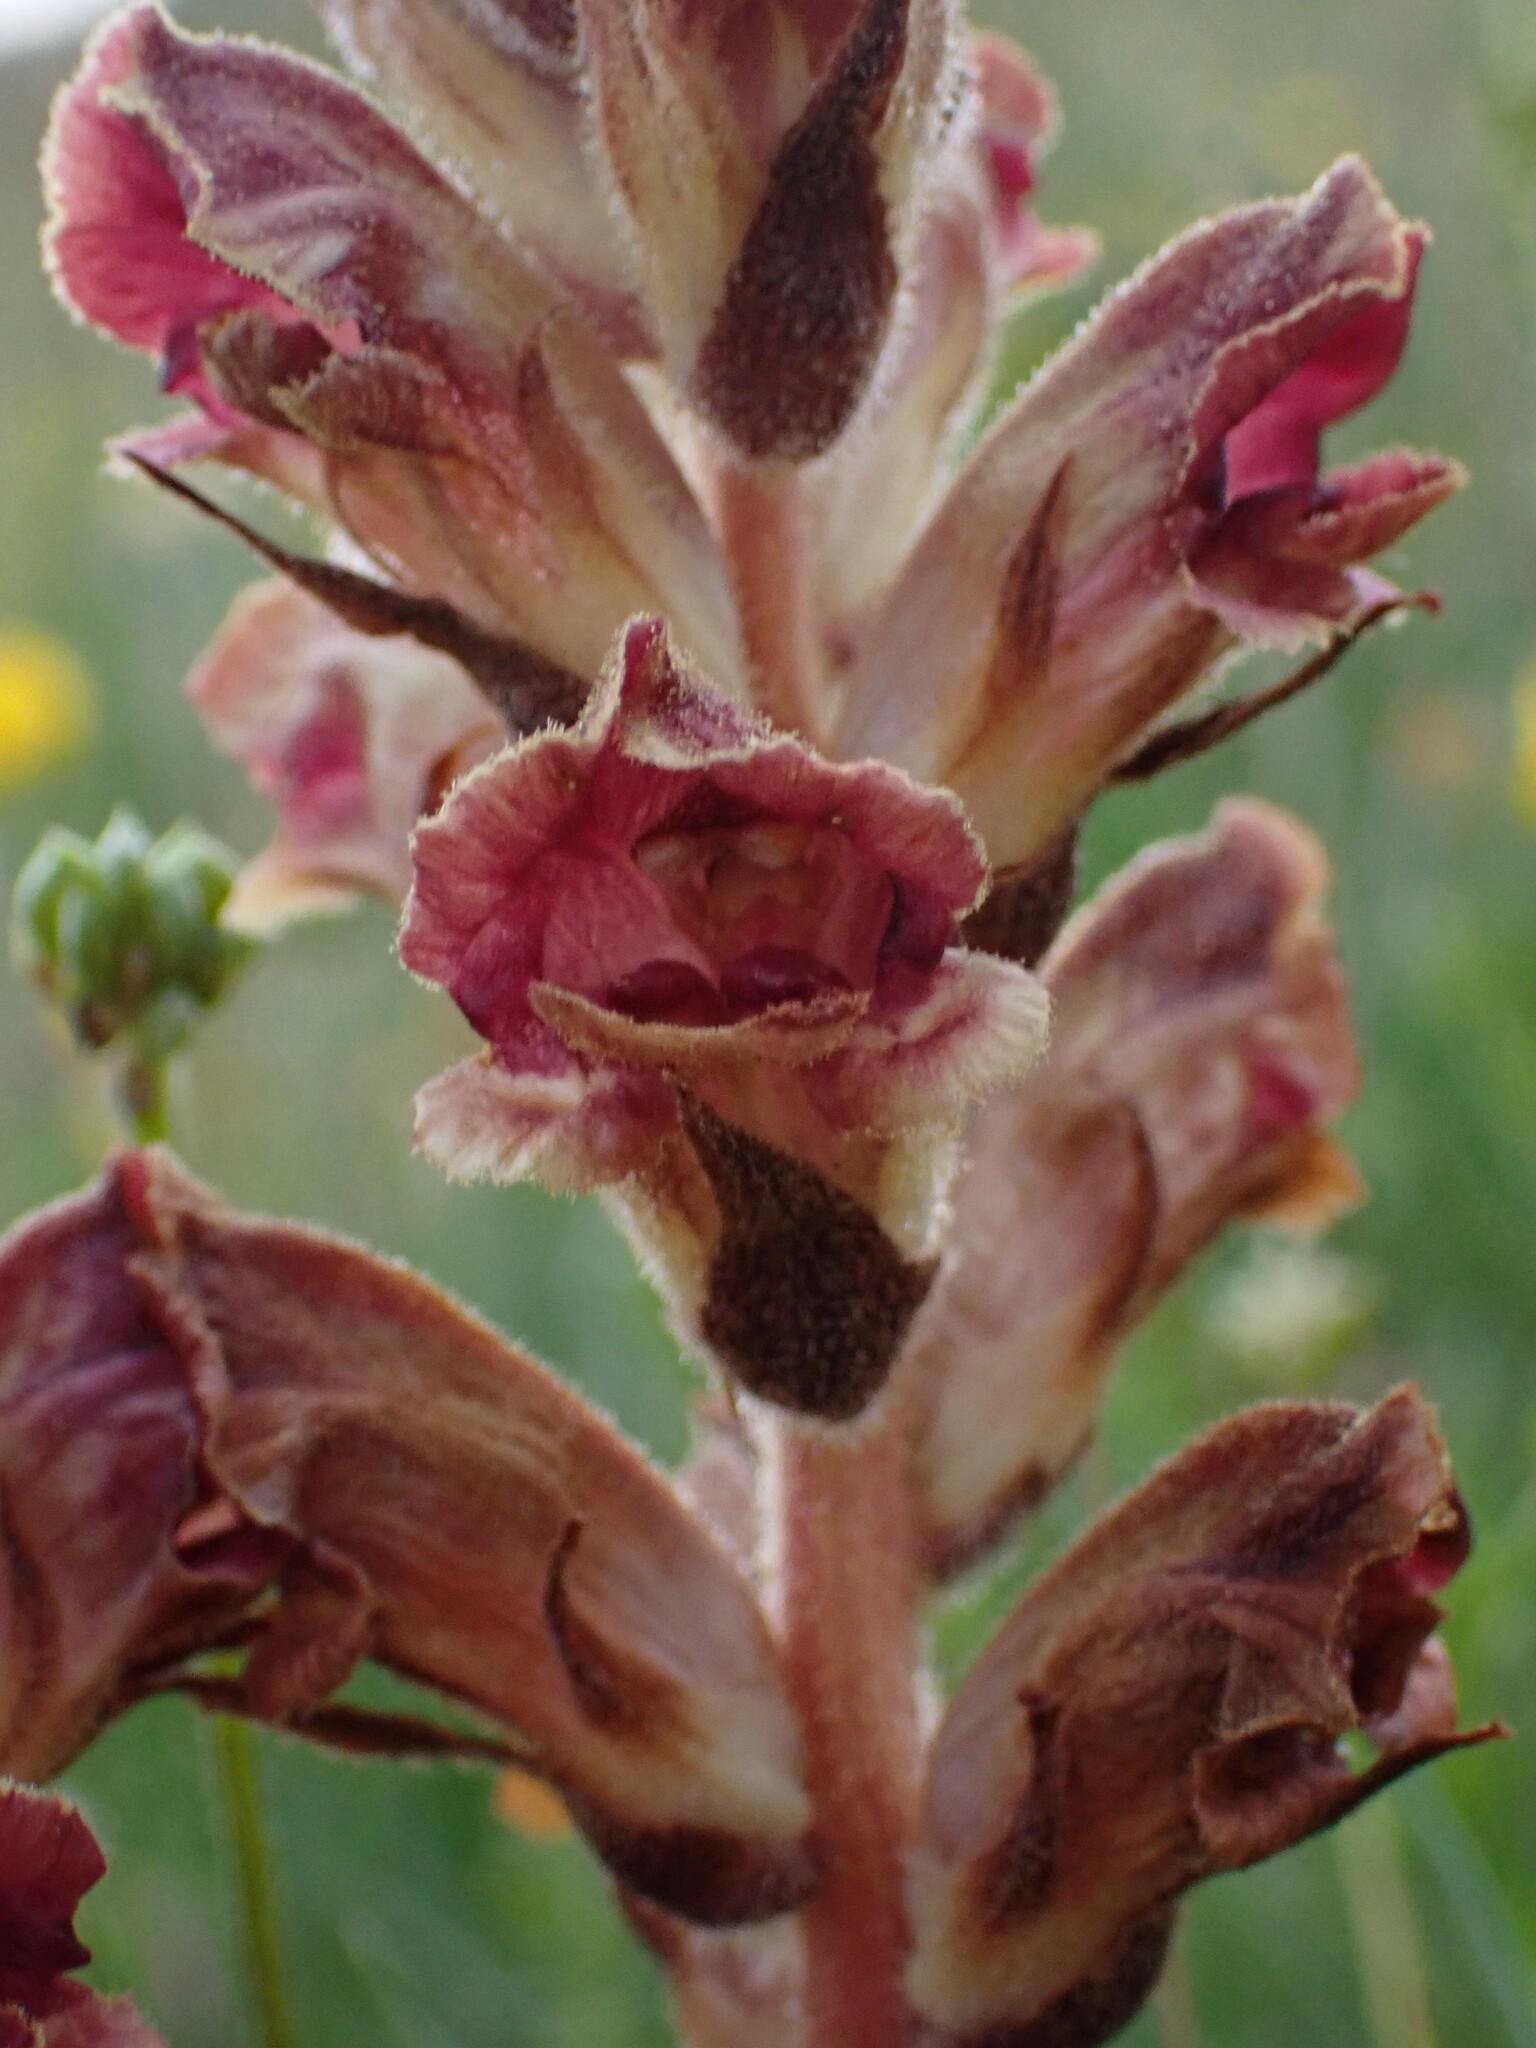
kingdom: Plantae
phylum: Tracheophyta
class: Magnoliopsida
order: Lamiales
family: Orobanchaceae
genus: Orobanche
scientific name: Orobanche gracilis
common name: Slender broomrape
